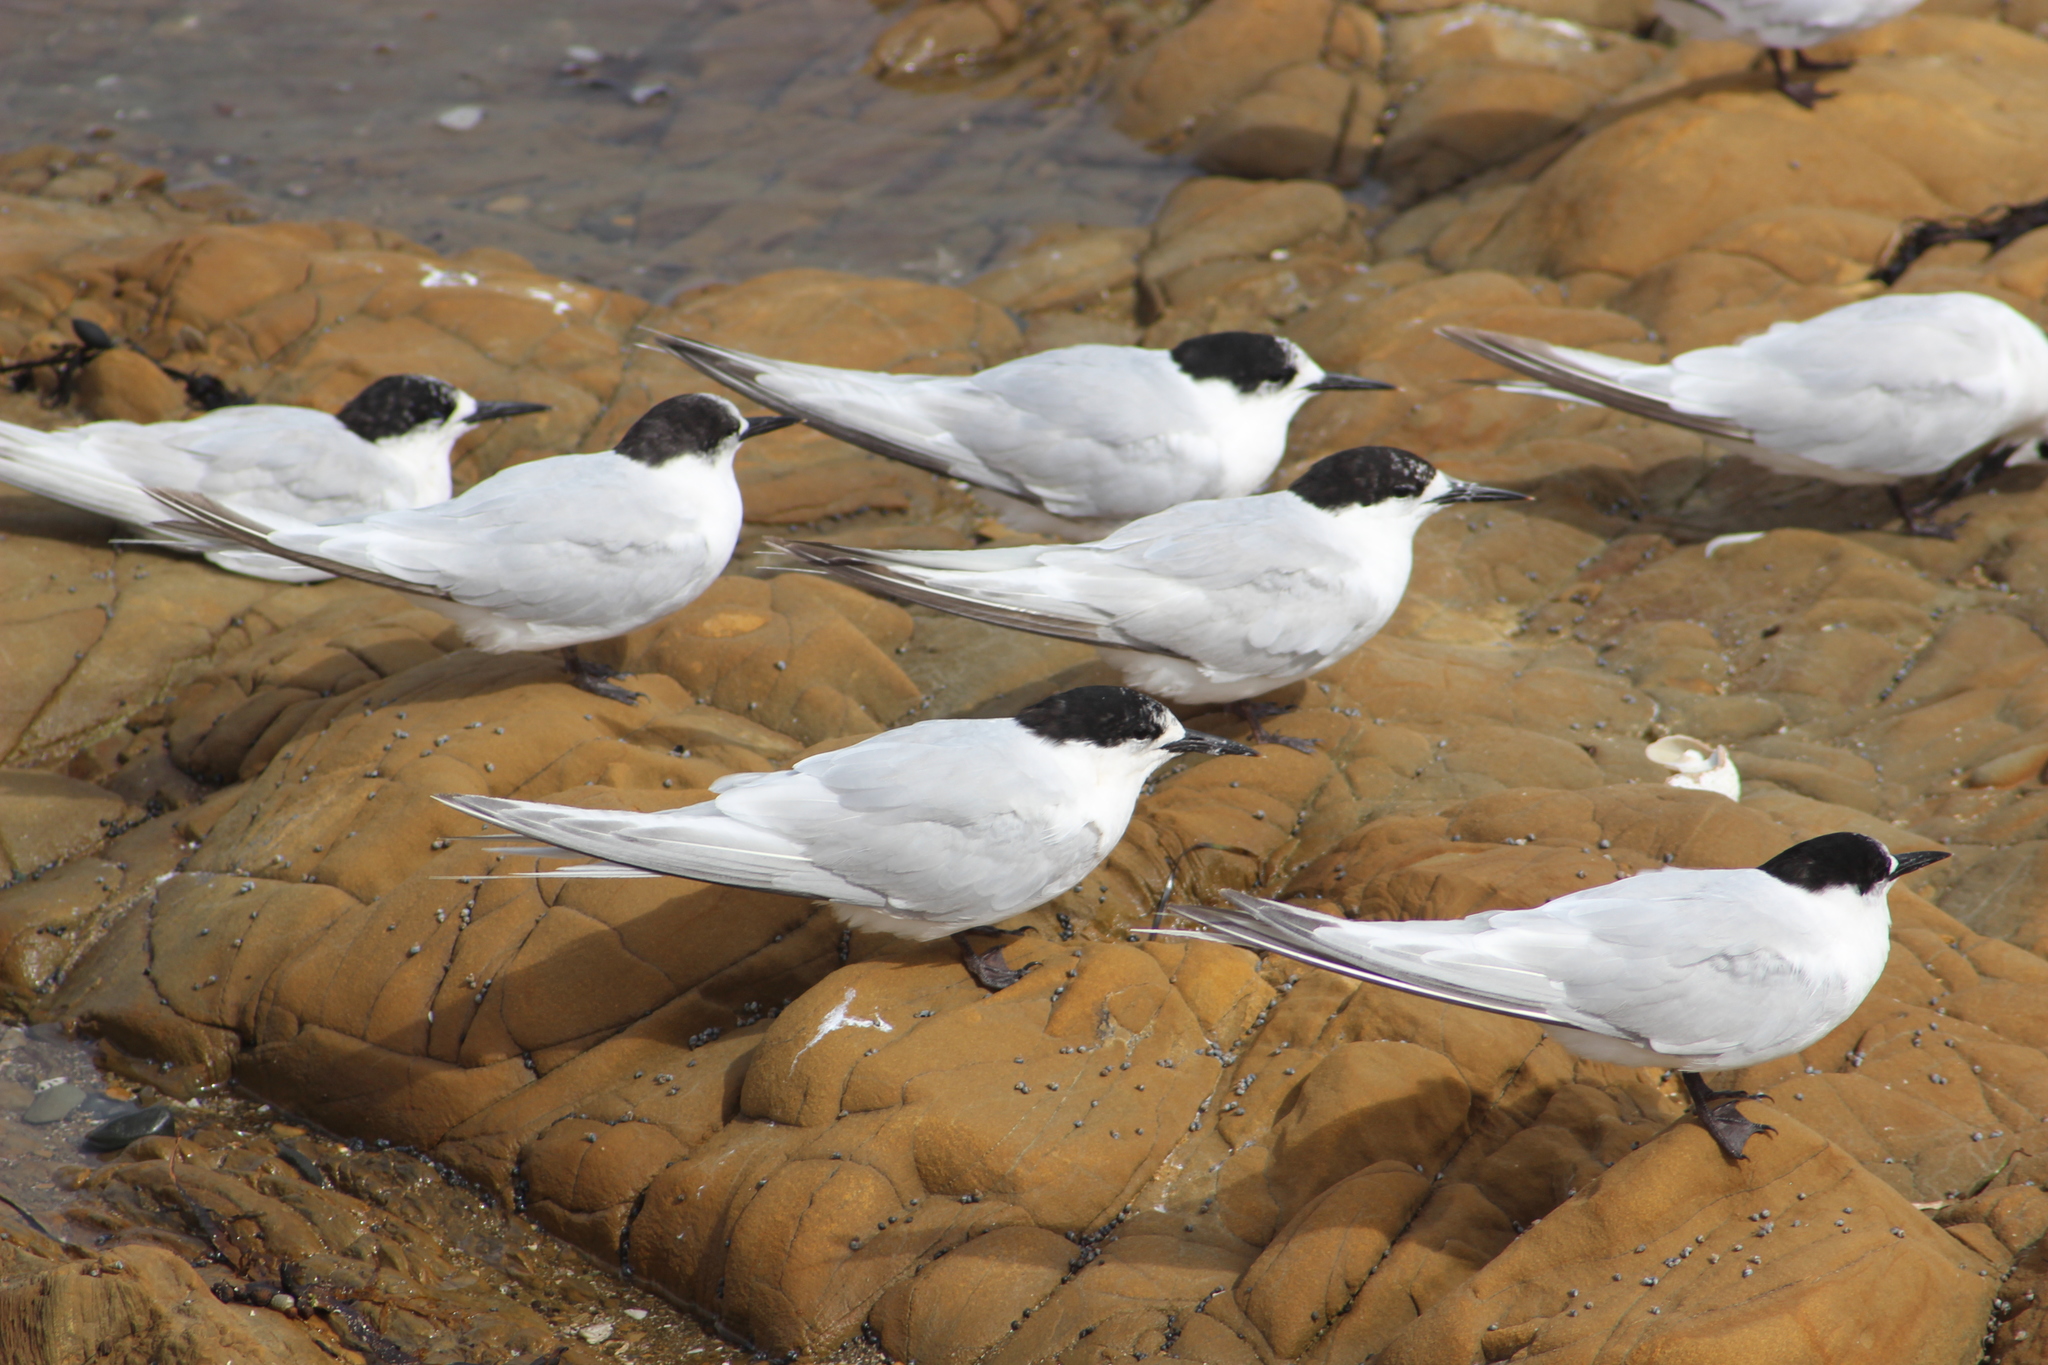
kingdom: Animalia
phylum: Chordata
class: Aves
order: Charadriiformes
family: Laridae
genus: Sterna
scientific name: Sterna striata
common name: White-fronted tern
